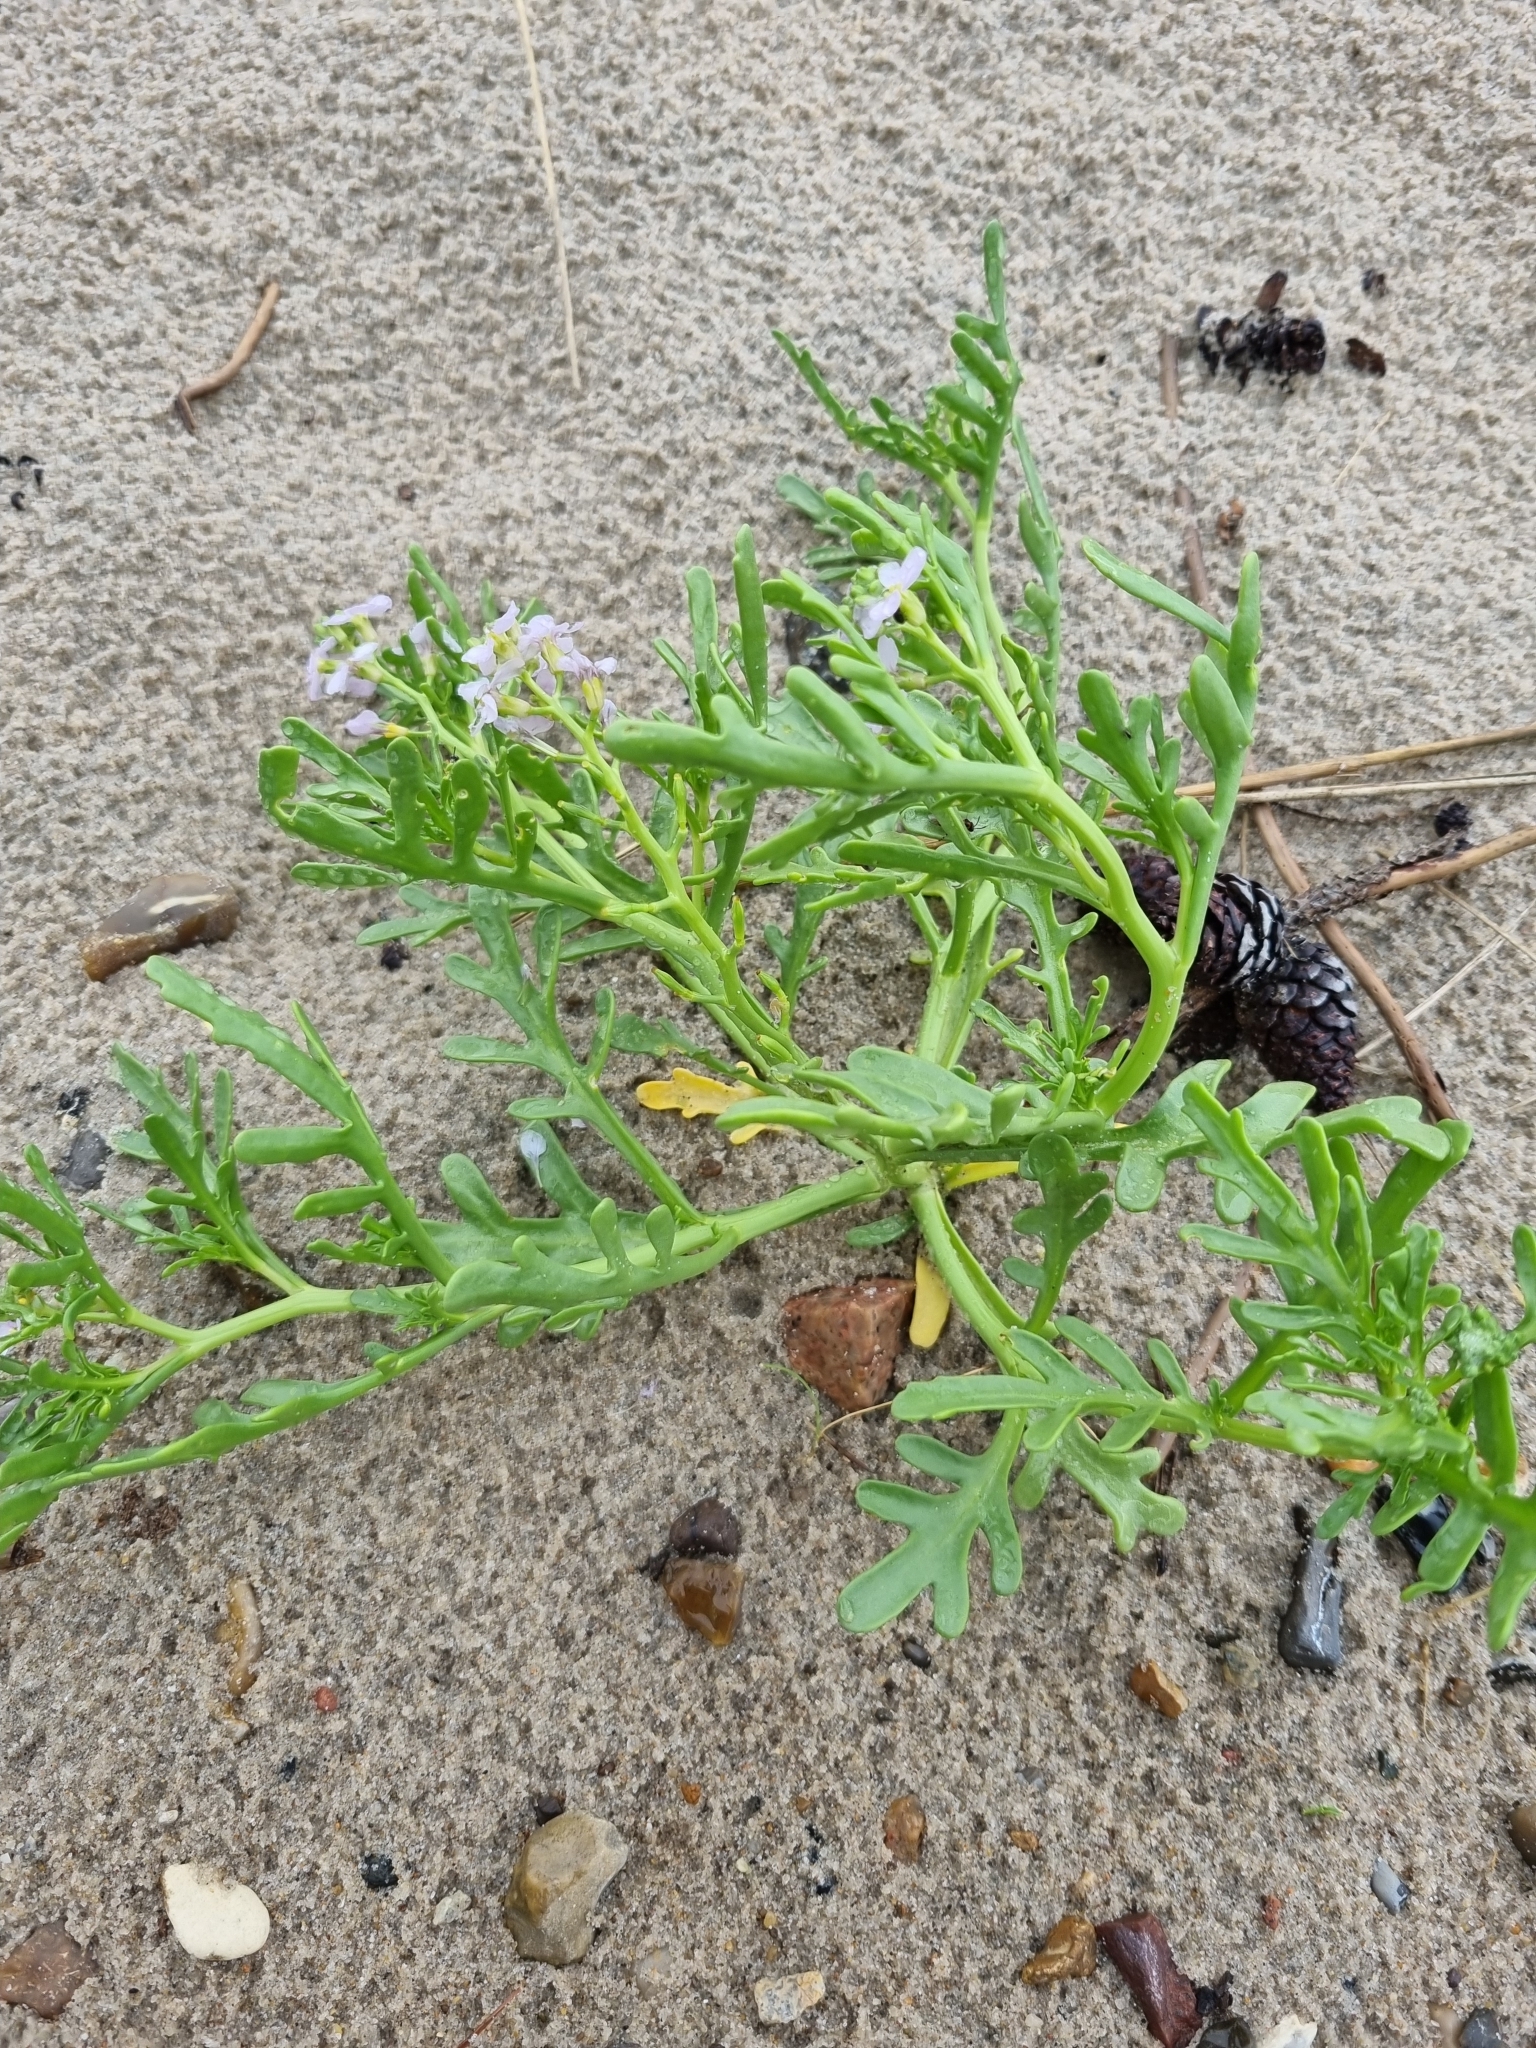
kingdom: Plantae
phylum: Tracheophyta
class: Magnoliopsida
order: Brassicales
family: Brassicaceae
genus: Cakile
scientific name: Cakile maritima
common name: Sea rocket
